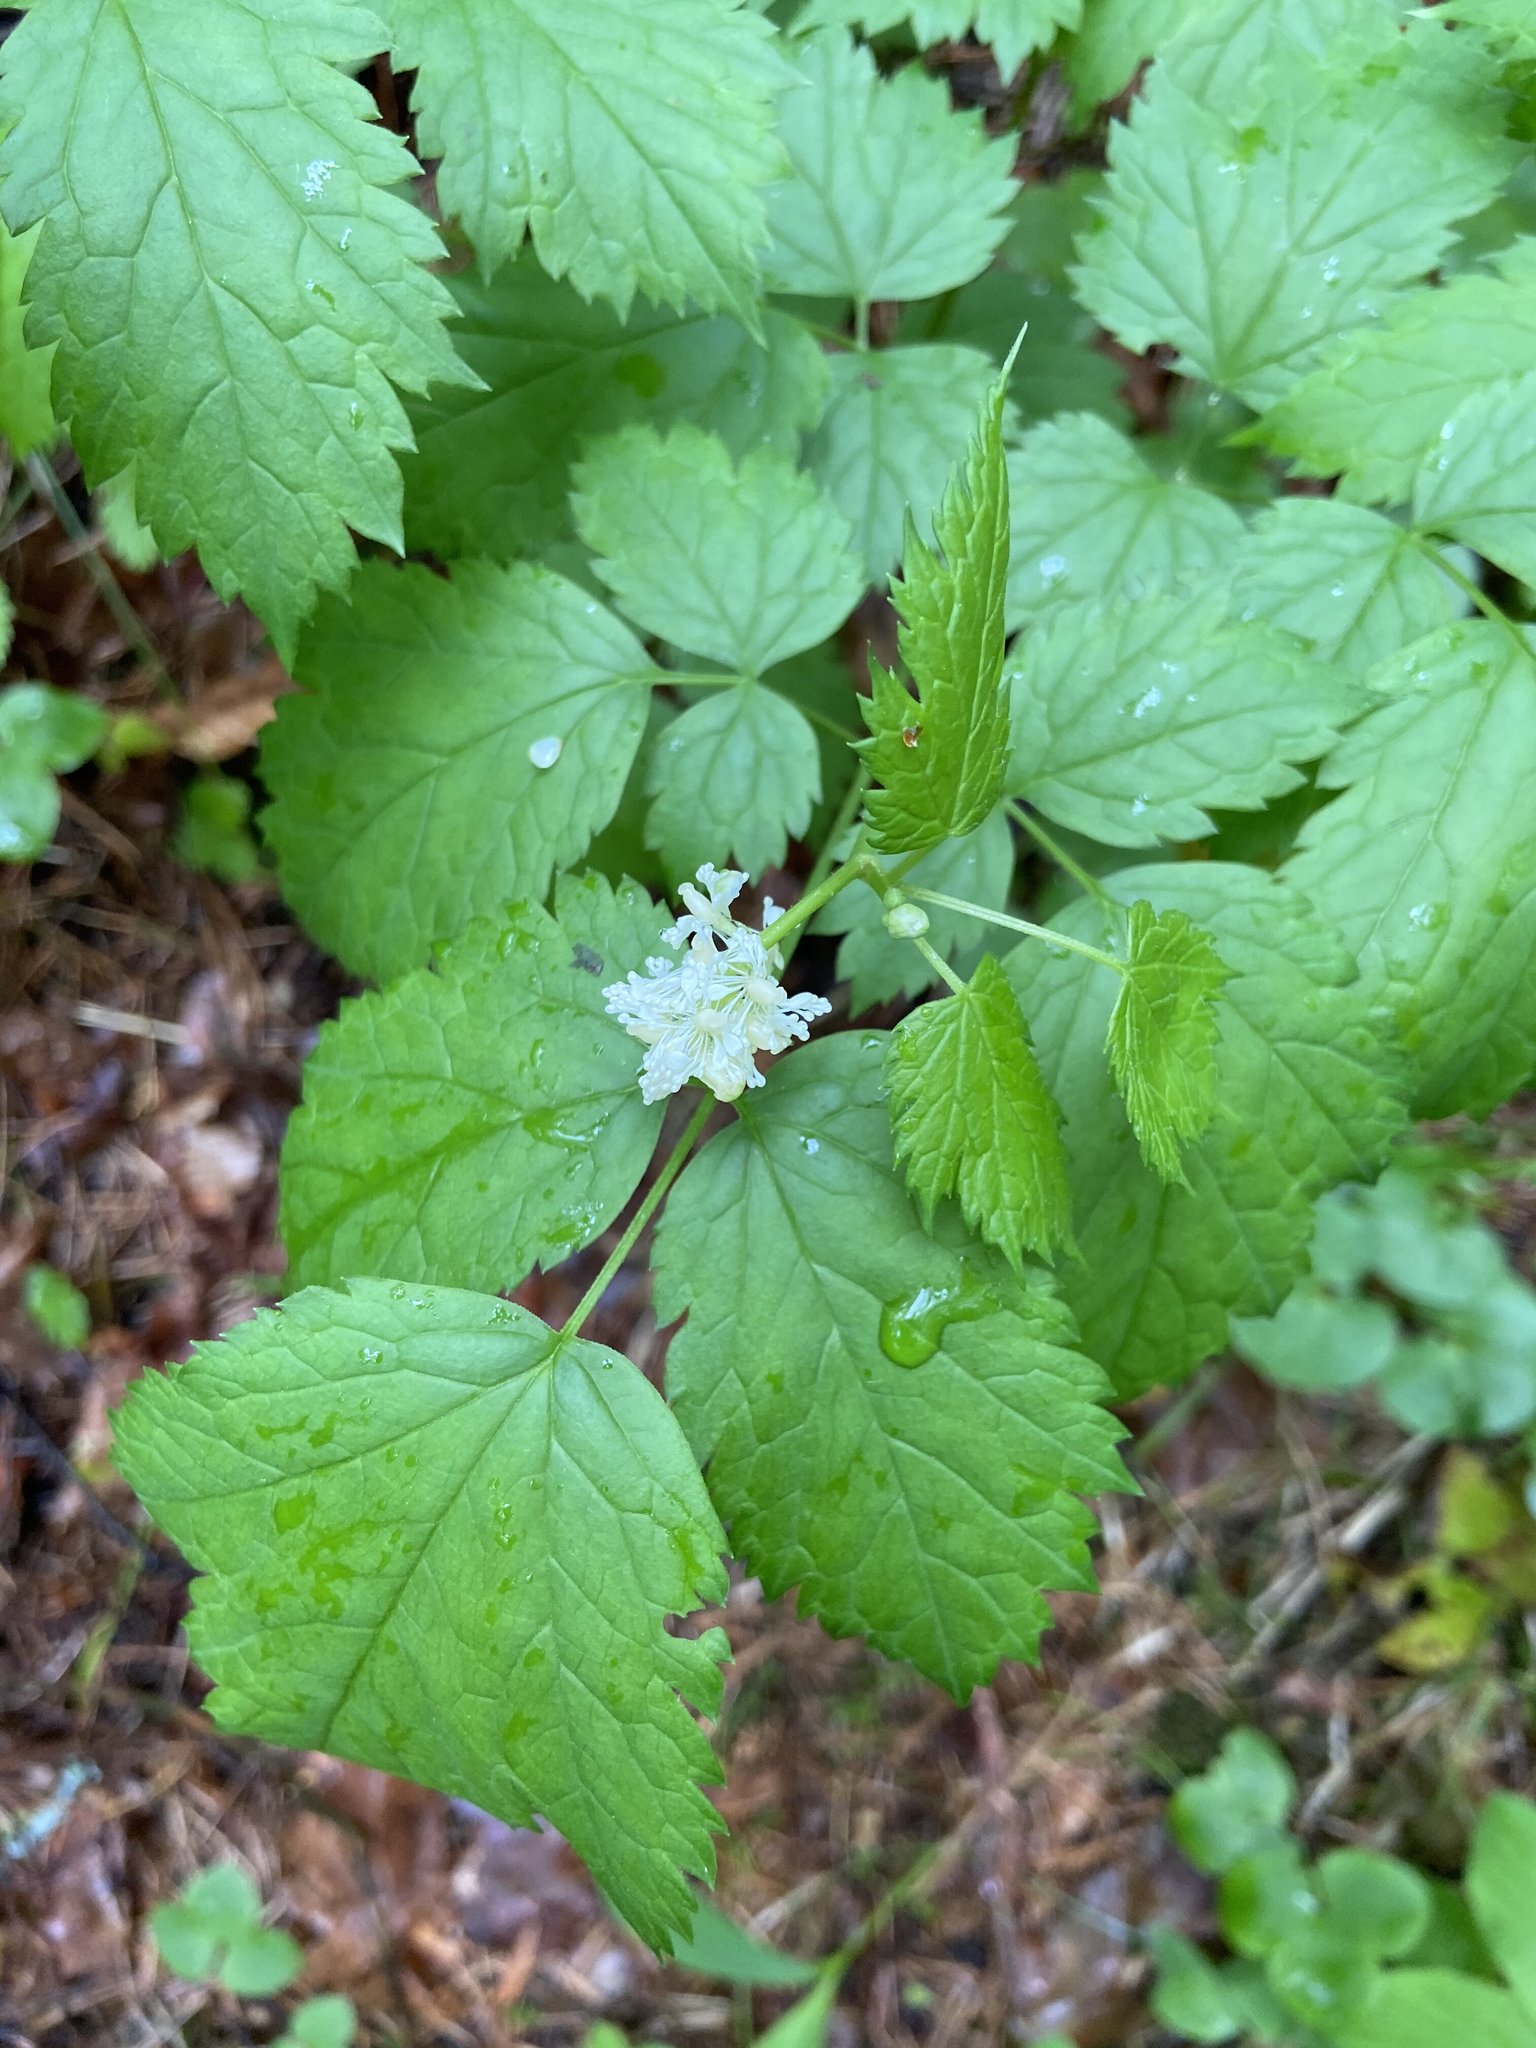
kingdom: Plantae
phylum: Tracheophyta
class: Magnoliopsida
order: Ranunculales
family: Ranunculaceae
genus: Actaea
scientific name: Actaea spicata
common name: Baneberry
